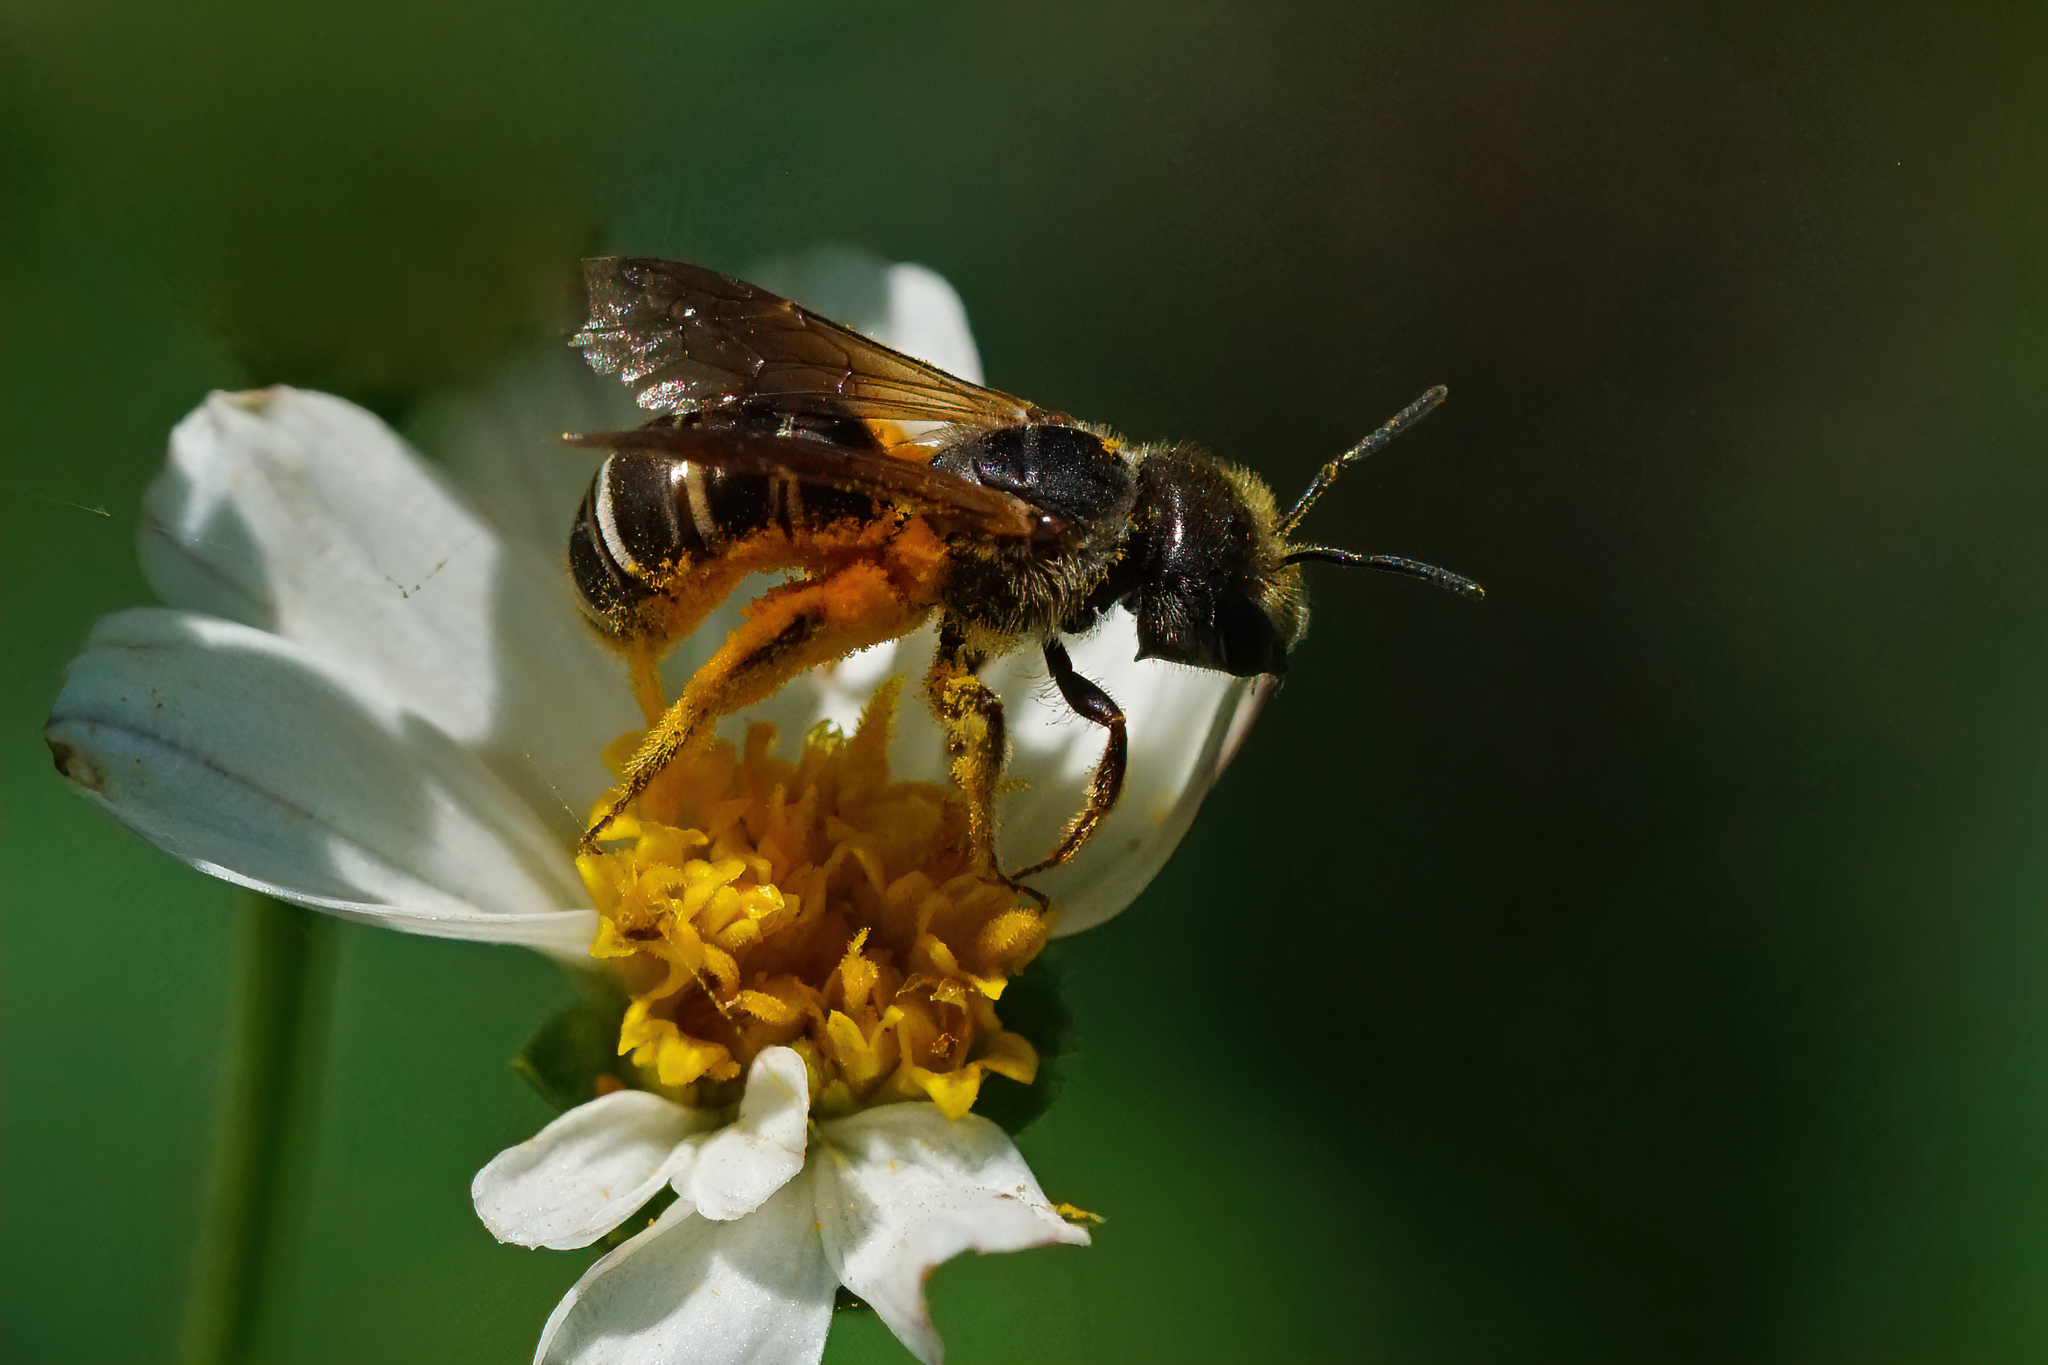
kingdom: Animalia
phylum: Arthropoda
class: Insecta
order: Hymenoptera
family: Halictidae
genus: Halictus
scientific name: Halictus poeyi
